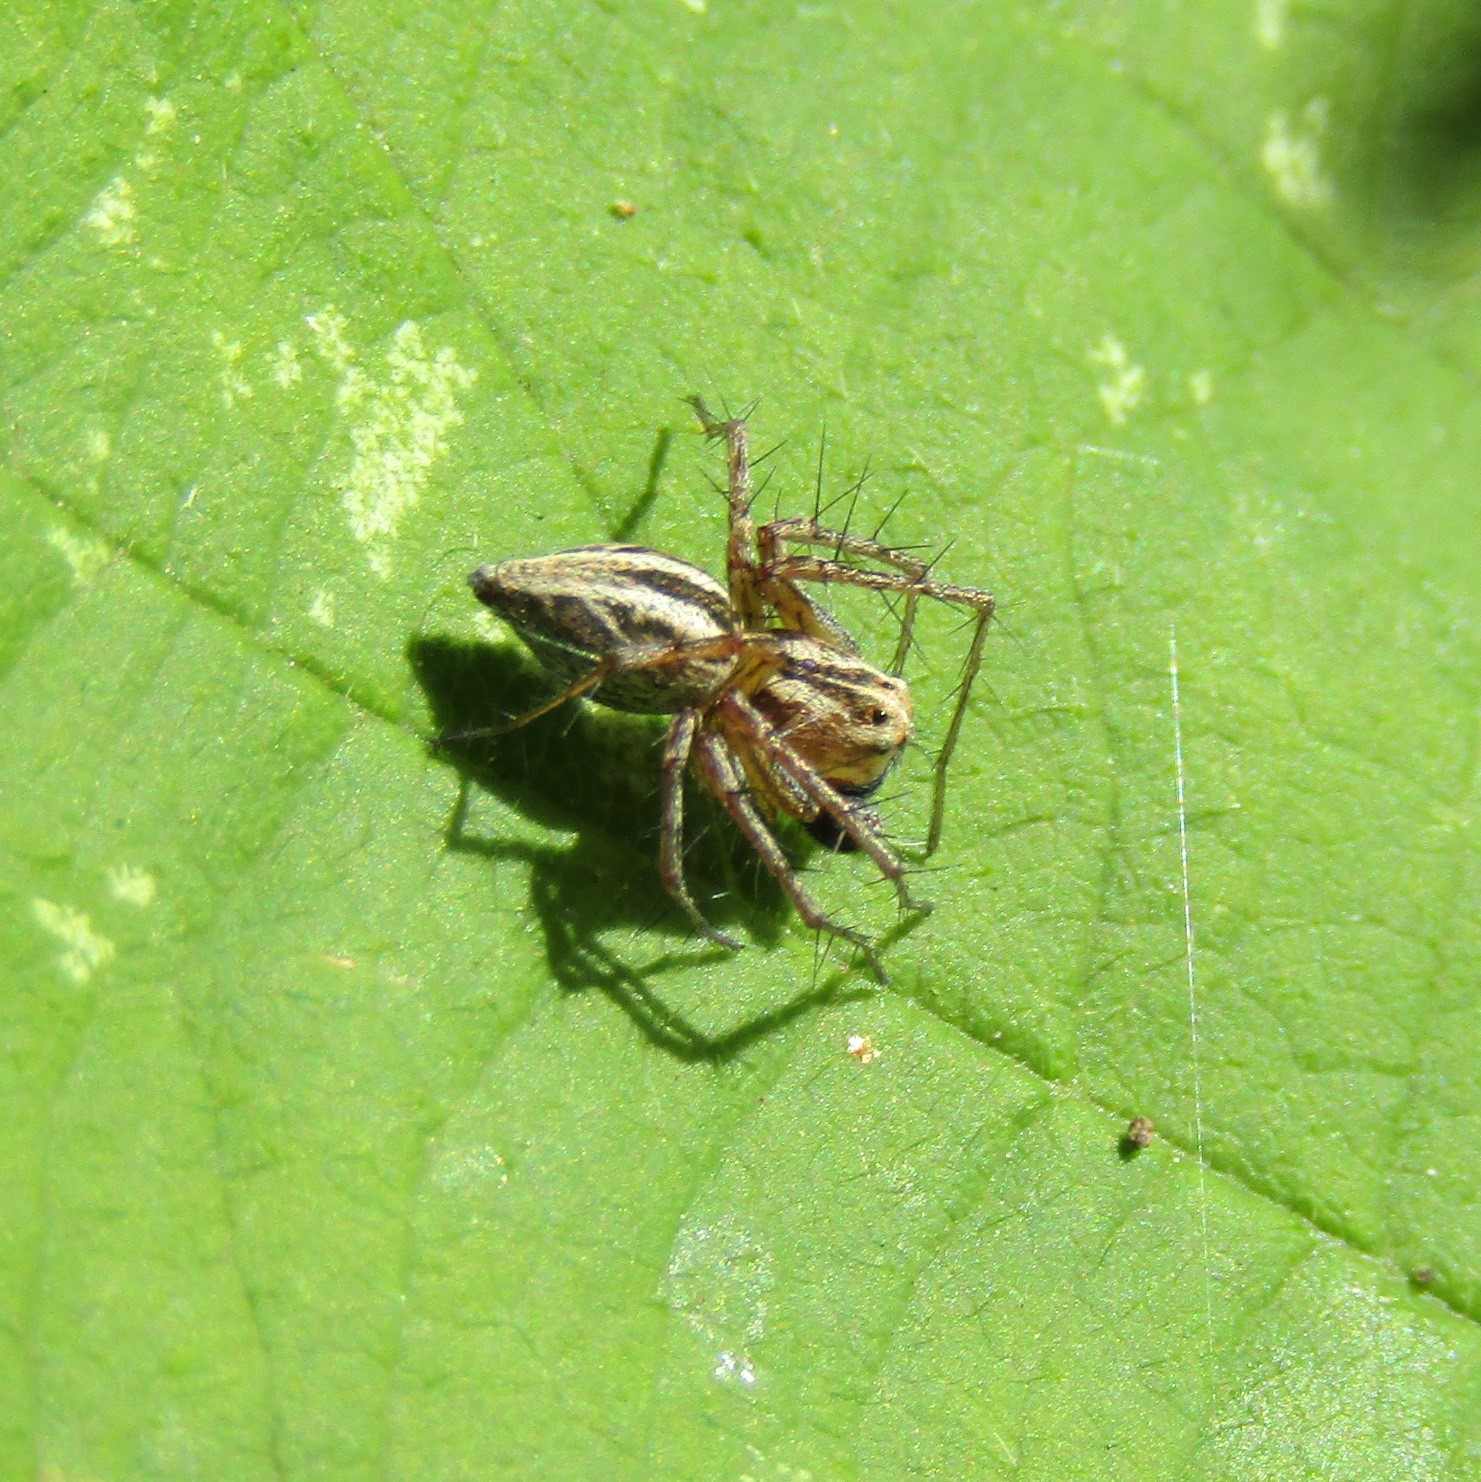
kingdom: Animalia
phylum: Arthropoda
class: Arachnida
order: Araneae
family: Oxyopidae
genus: Oxyopes
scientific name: Oxyopes gracilipes
